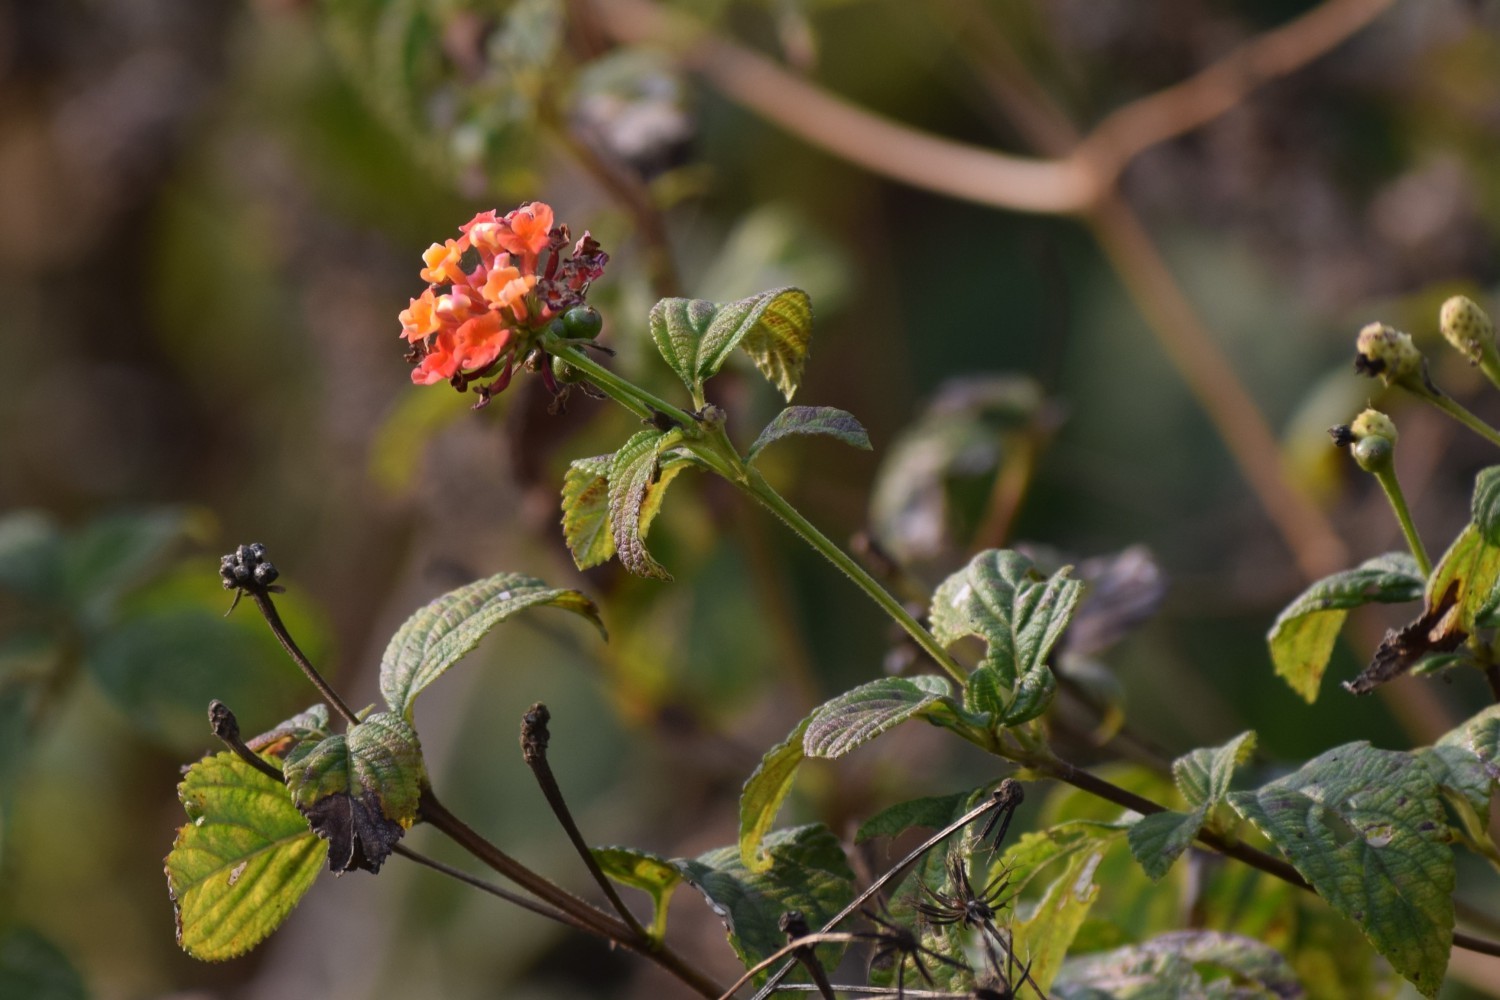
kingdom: Plantae
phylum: Tracheophyta
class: Magnoliopsida
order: Lamiales
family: Verbenaceae
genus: Lantana
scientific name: Lantana camara
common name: Lantana
